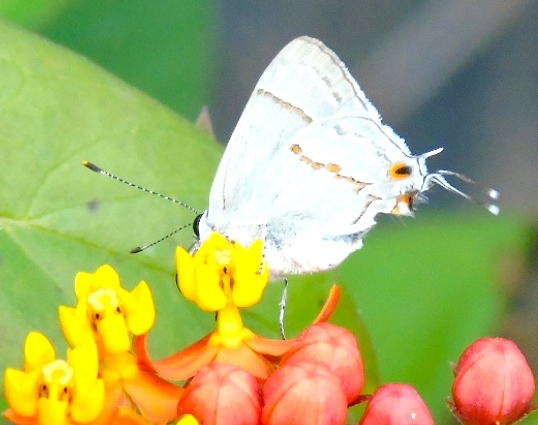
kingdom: Animalia
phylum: Arthropoda
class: Insecta
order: Lepidoptera
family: Lycaenidae
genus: Thecla
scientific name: Thecla serapio
